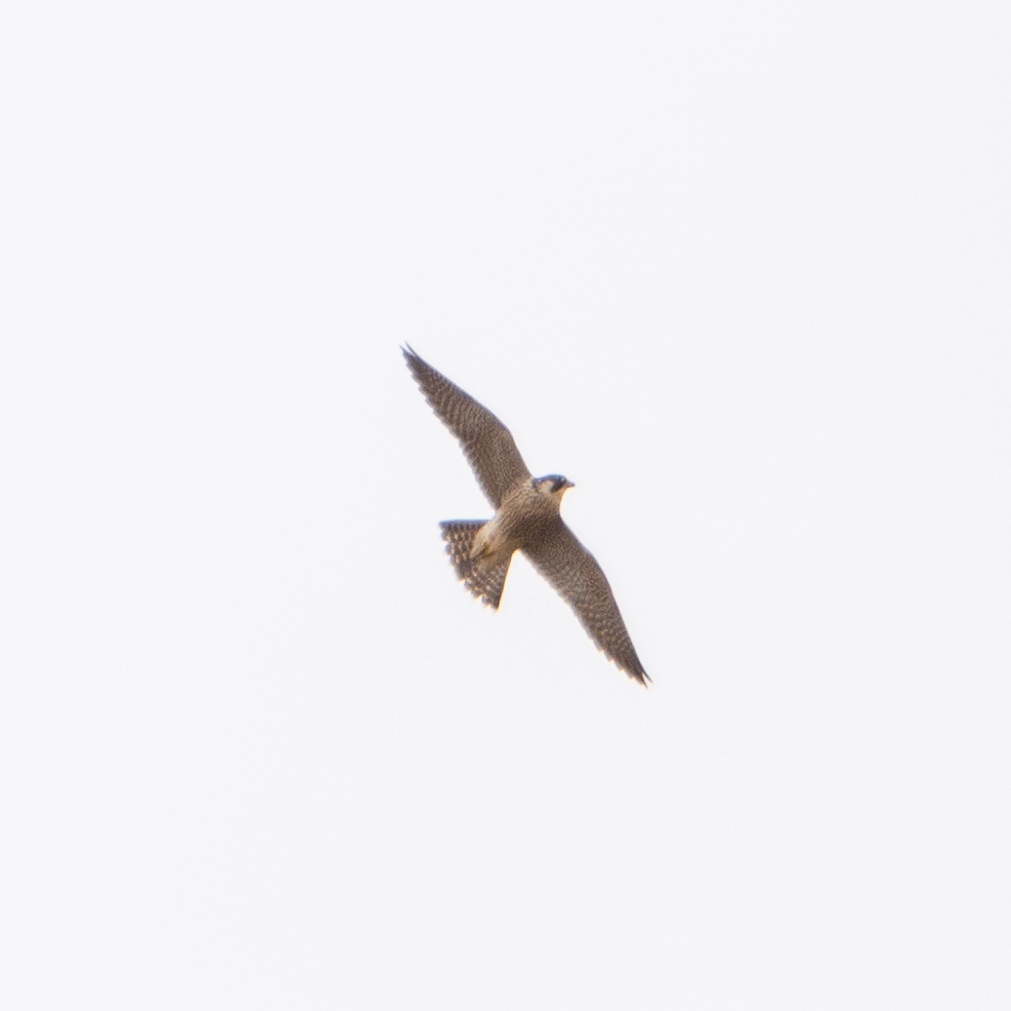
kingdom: Animalia
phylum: Chordata
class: Aves
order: Falconiformes
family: Falconidae
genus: Falco
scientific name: Falco peregrinus
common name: Peregrine falcon
